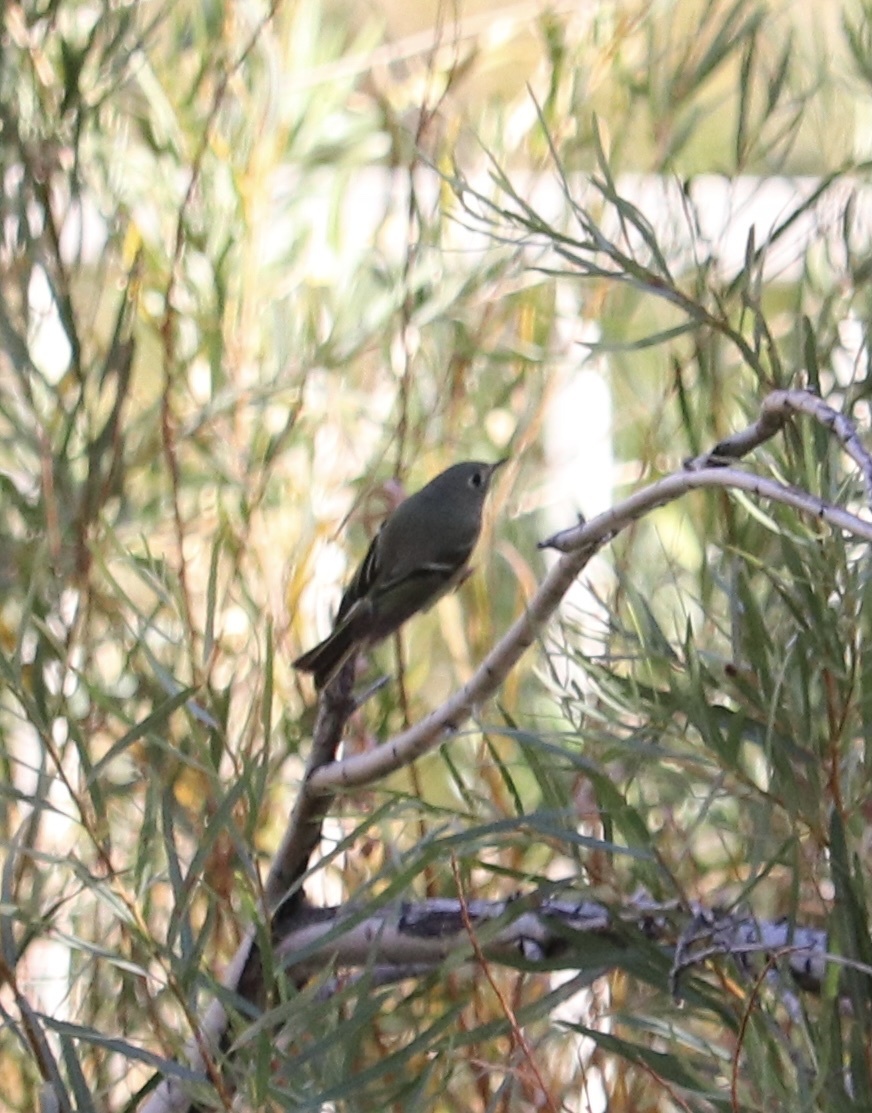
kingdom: Animalia
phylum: Chordata
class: Aves
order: Passeriformes
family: Regulidae
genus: Regulus
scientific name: Regulus calendula
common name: Ruby-crowned kinglet
